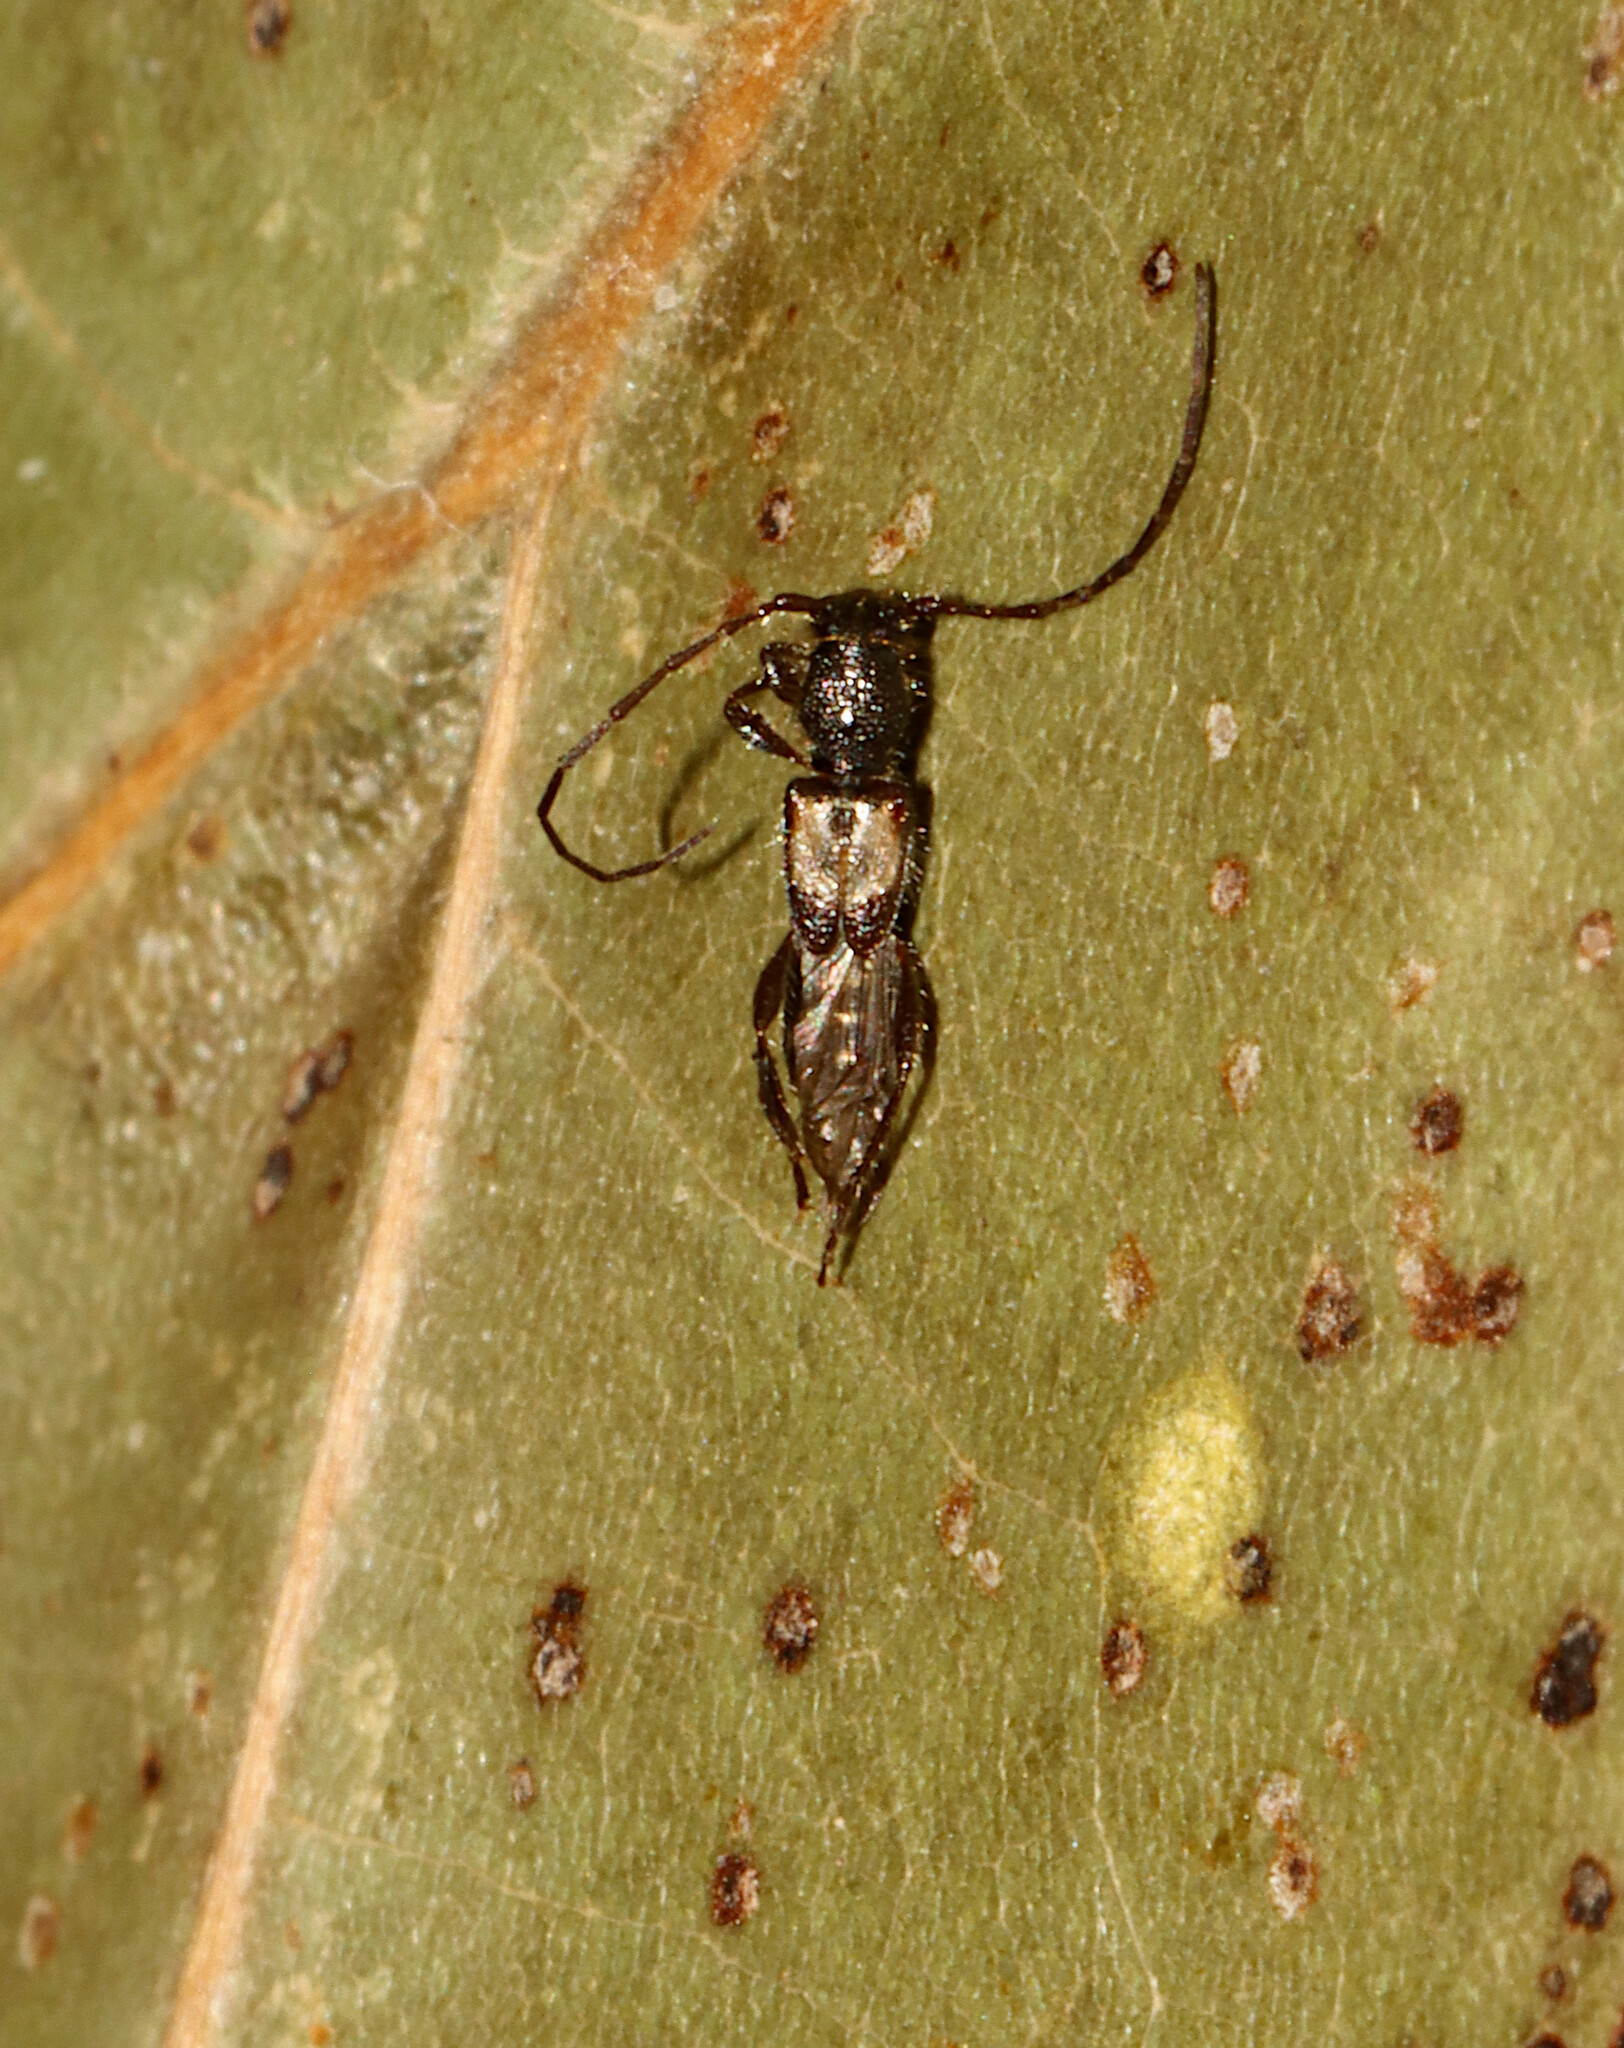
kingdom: Animalia
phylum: Arthropoda
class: Insecta
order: Coleoptera
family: Cerambycidae
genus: Molorchus
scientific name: Molorchus bimaculatus
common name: Bimaculate longhorn beetle
